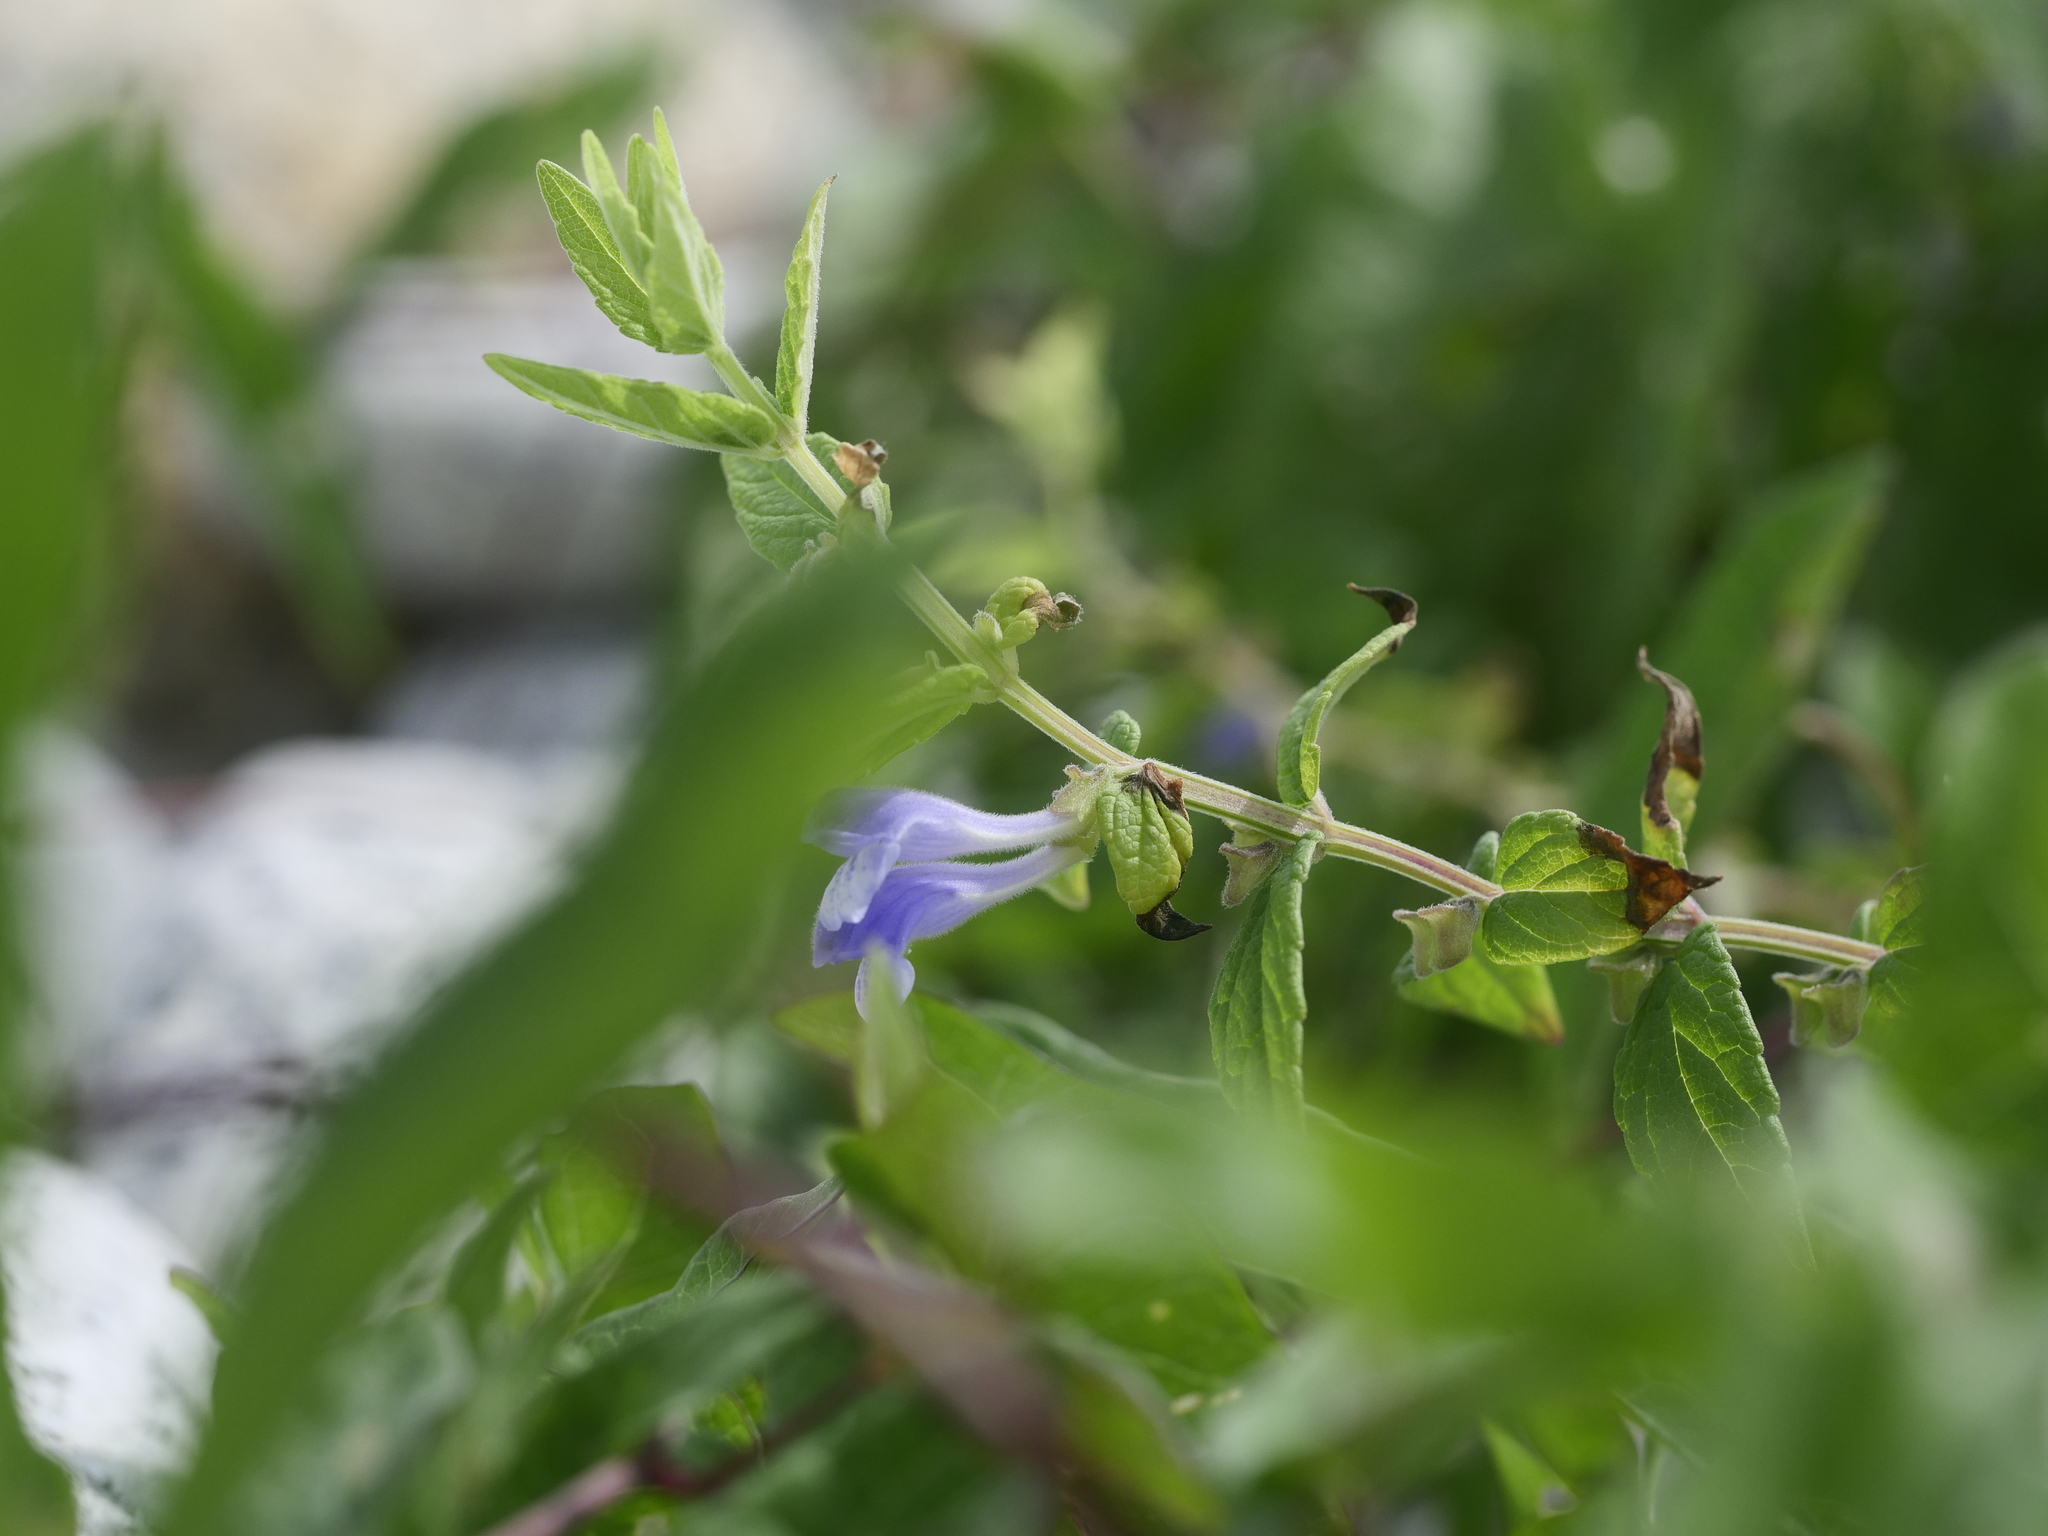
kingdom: Plantae
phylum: Tracheophyta
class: Magnoliopsida
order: Lamiales
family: Lamiaceae
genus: Scutellaria
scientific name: Scutellaria galericulata
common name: Skullcap
